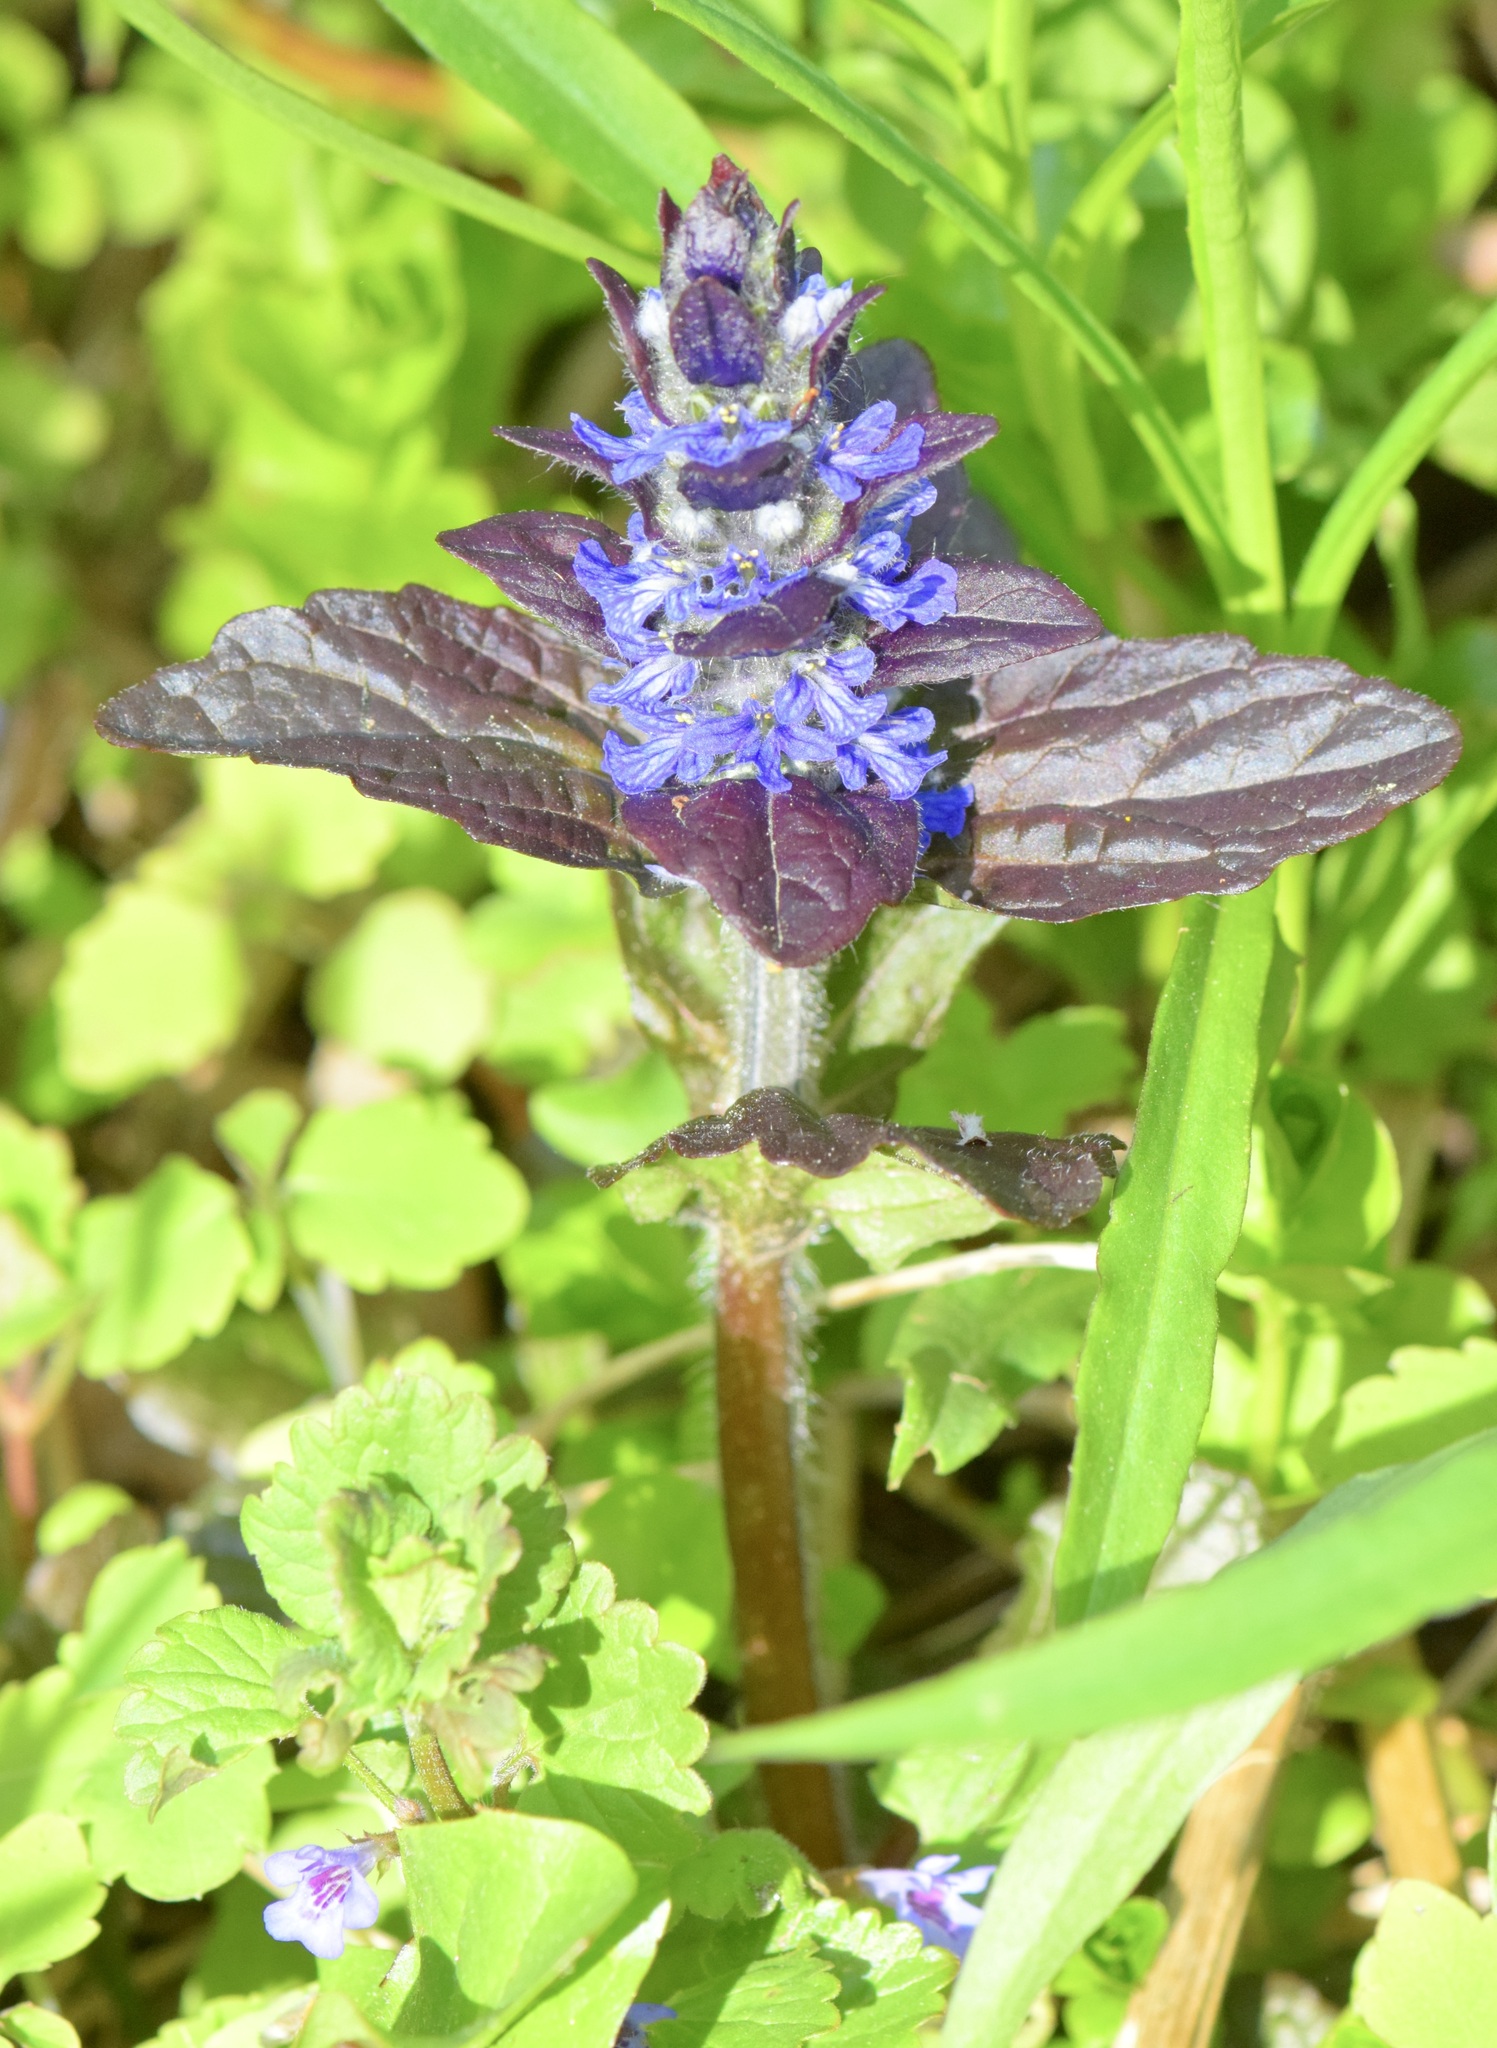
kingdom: Plantae
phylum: Tracheophyta
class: Magnoliopsida
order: Lamiales
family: Lamiaceae
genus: Ajuga
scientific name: Ajuga reptans
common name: Bugle
